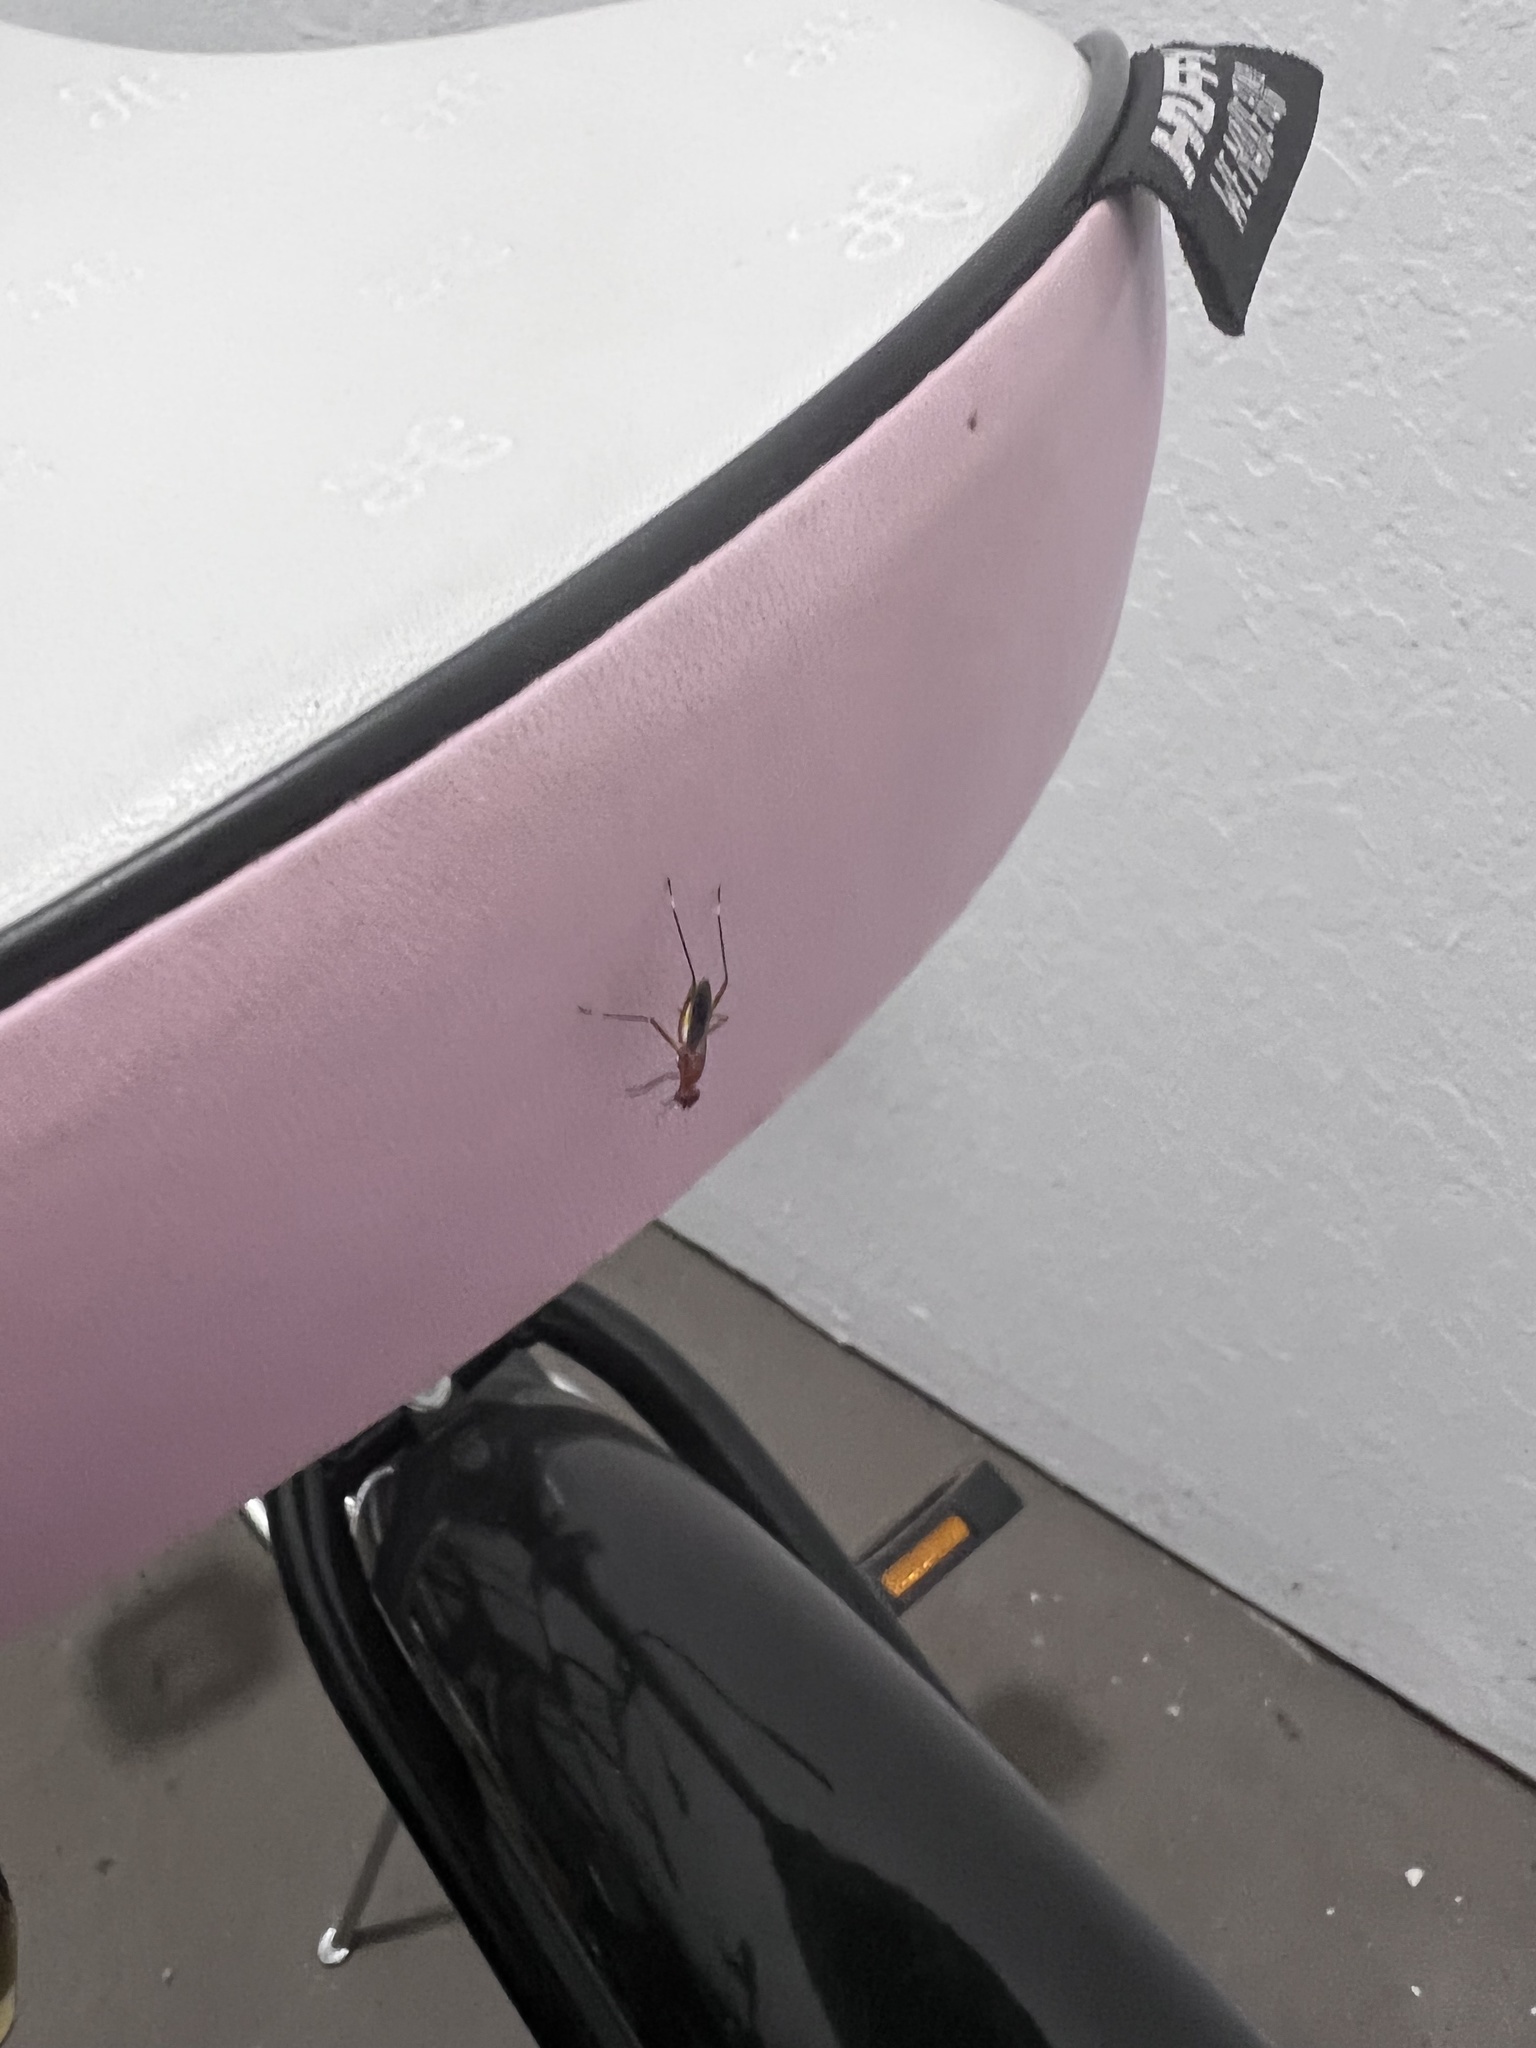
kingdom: Animalia
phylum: Arthropoda
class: Insecta
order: Diptera
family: Micropezidae
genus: Grallipeza
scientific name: Grallipeza nebulosa
